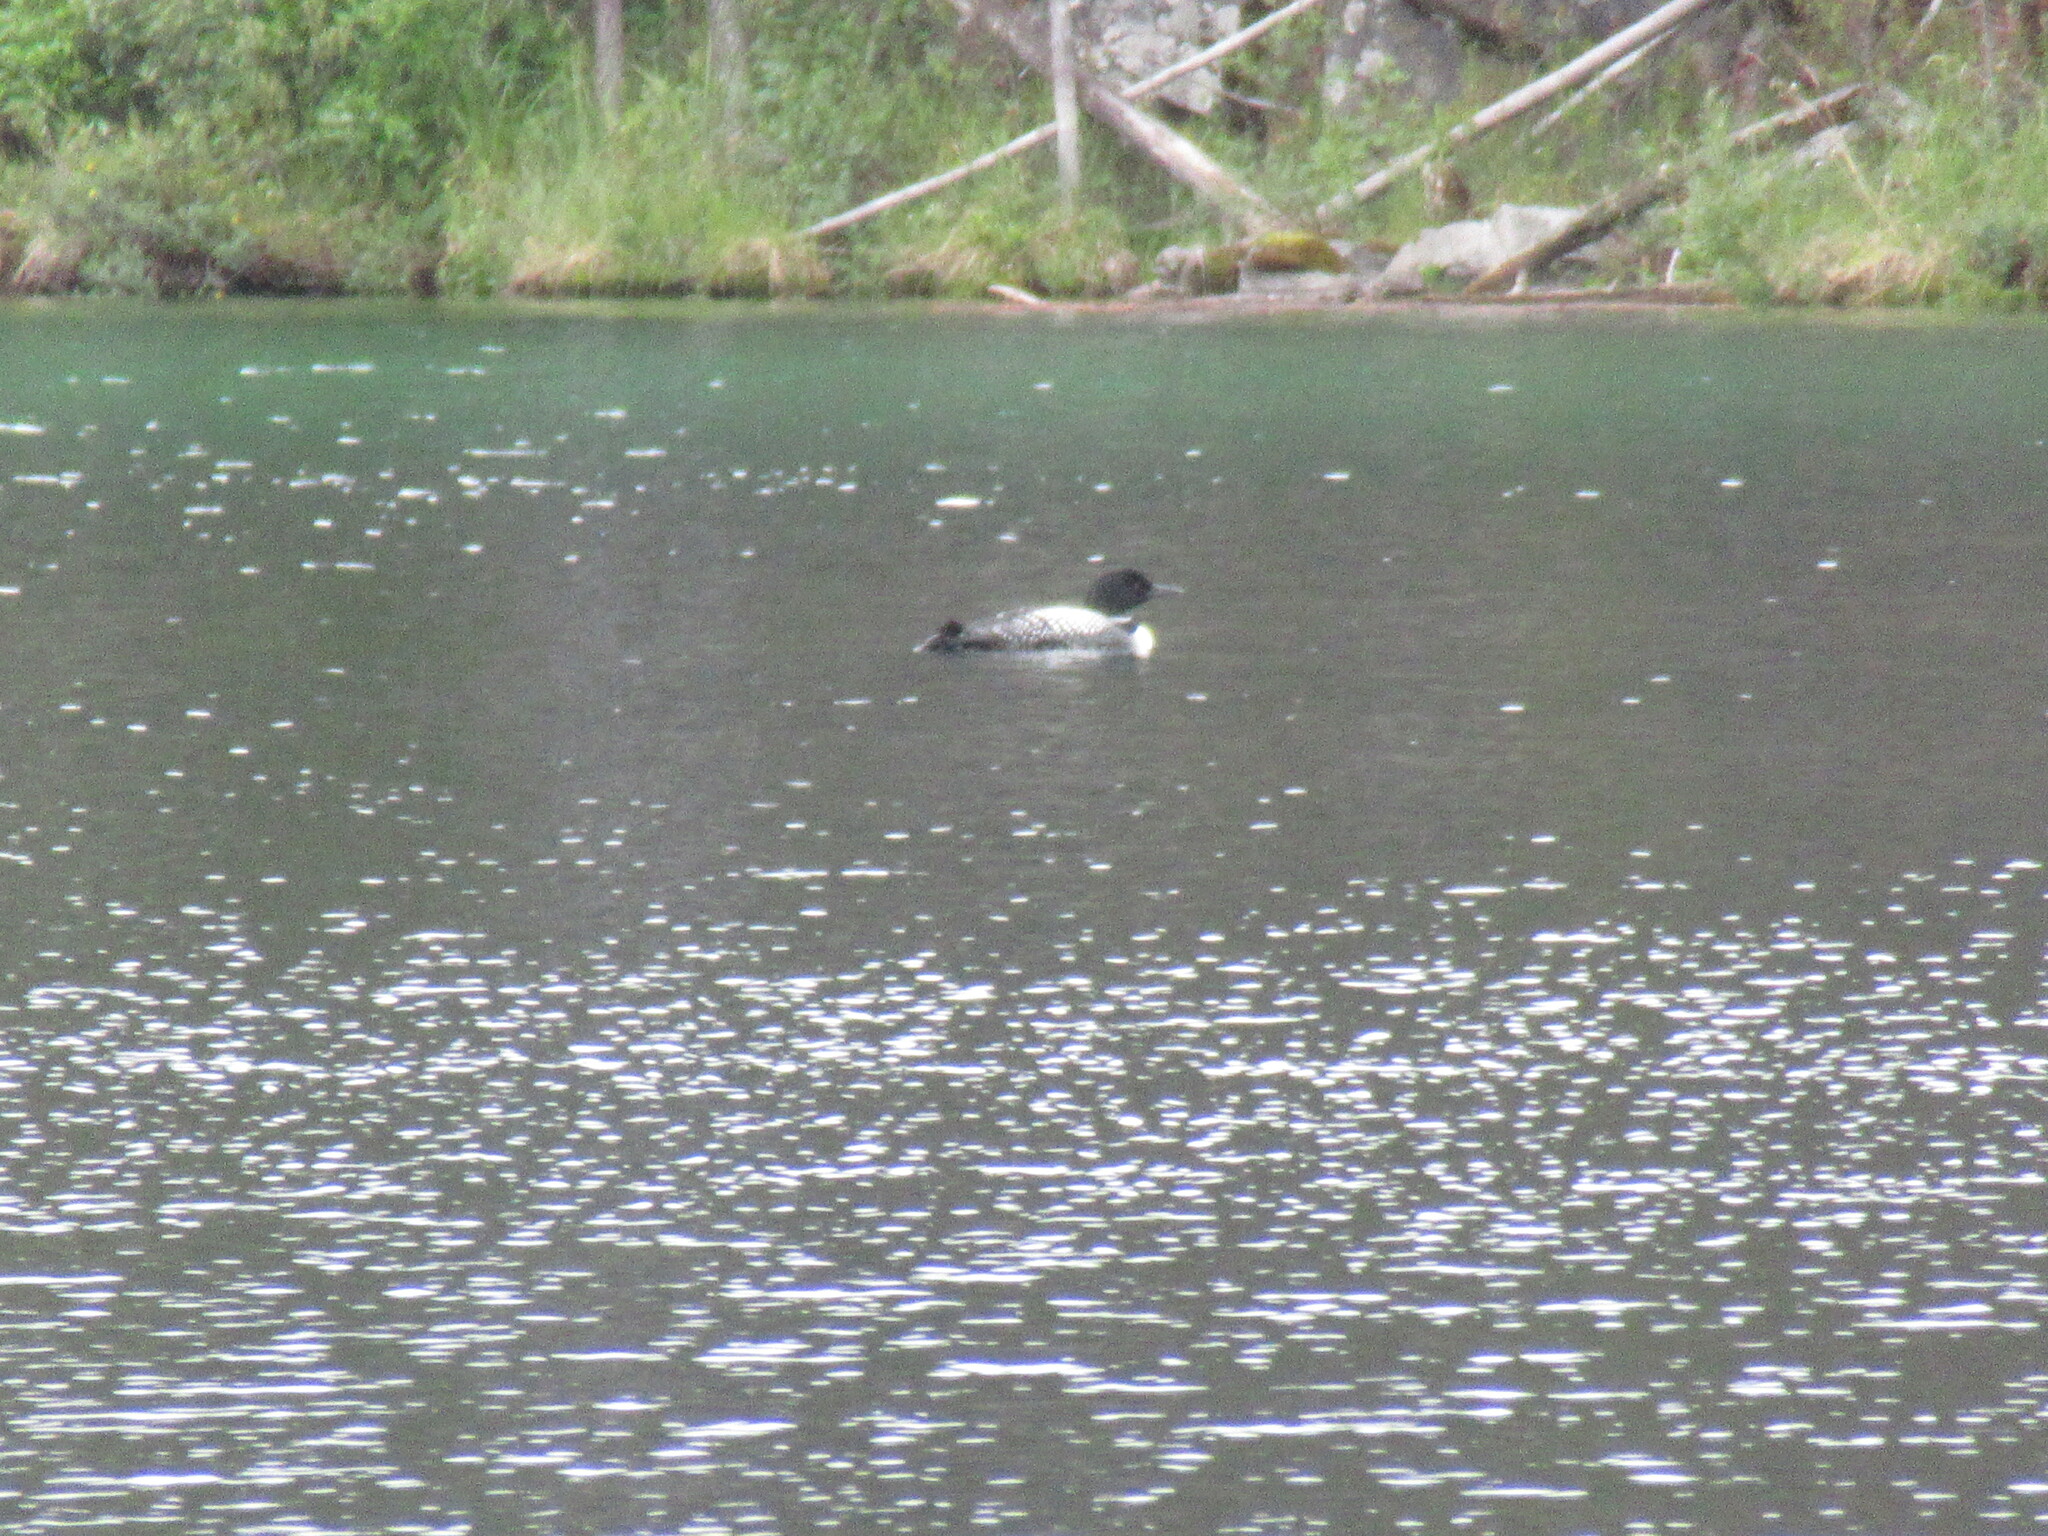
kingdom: Animalia
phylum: Chordata
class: Aves
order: Gaviiformes
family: Gaviidae
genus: Gavia
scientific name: Gavia immer
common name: Common loon
